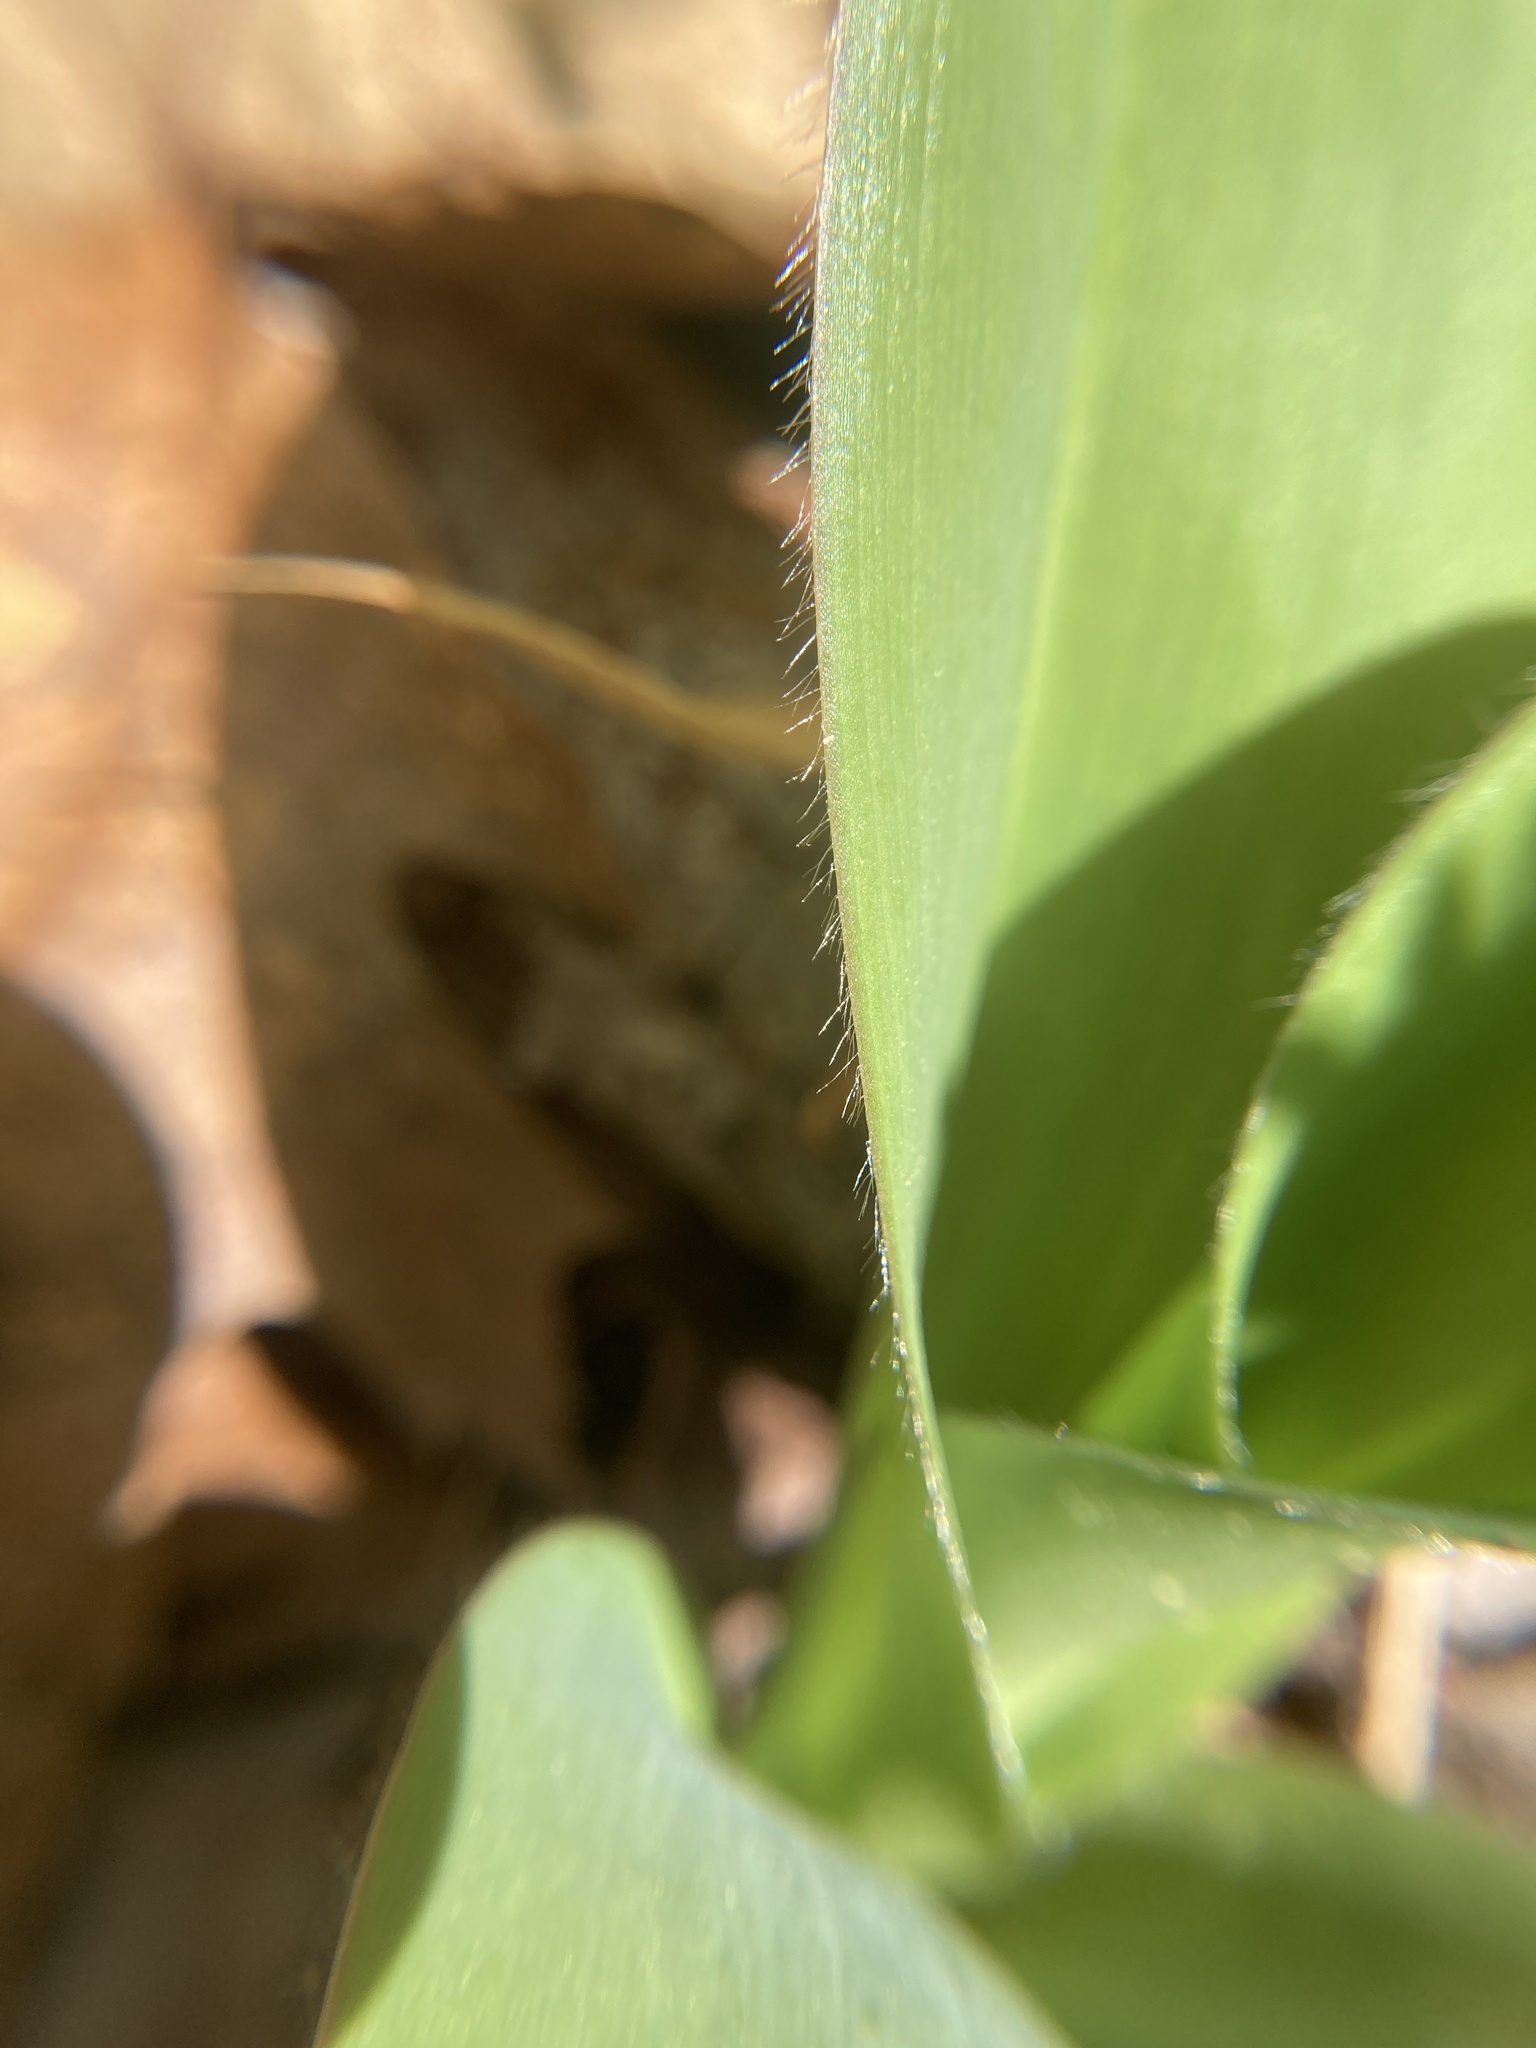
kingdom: Plantae
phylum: Tracheophyta
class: Liliopsida
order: Liliales
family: Liliaceae
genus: Clintonia
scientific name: Clintonia borealis
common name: Yellow clintonia
